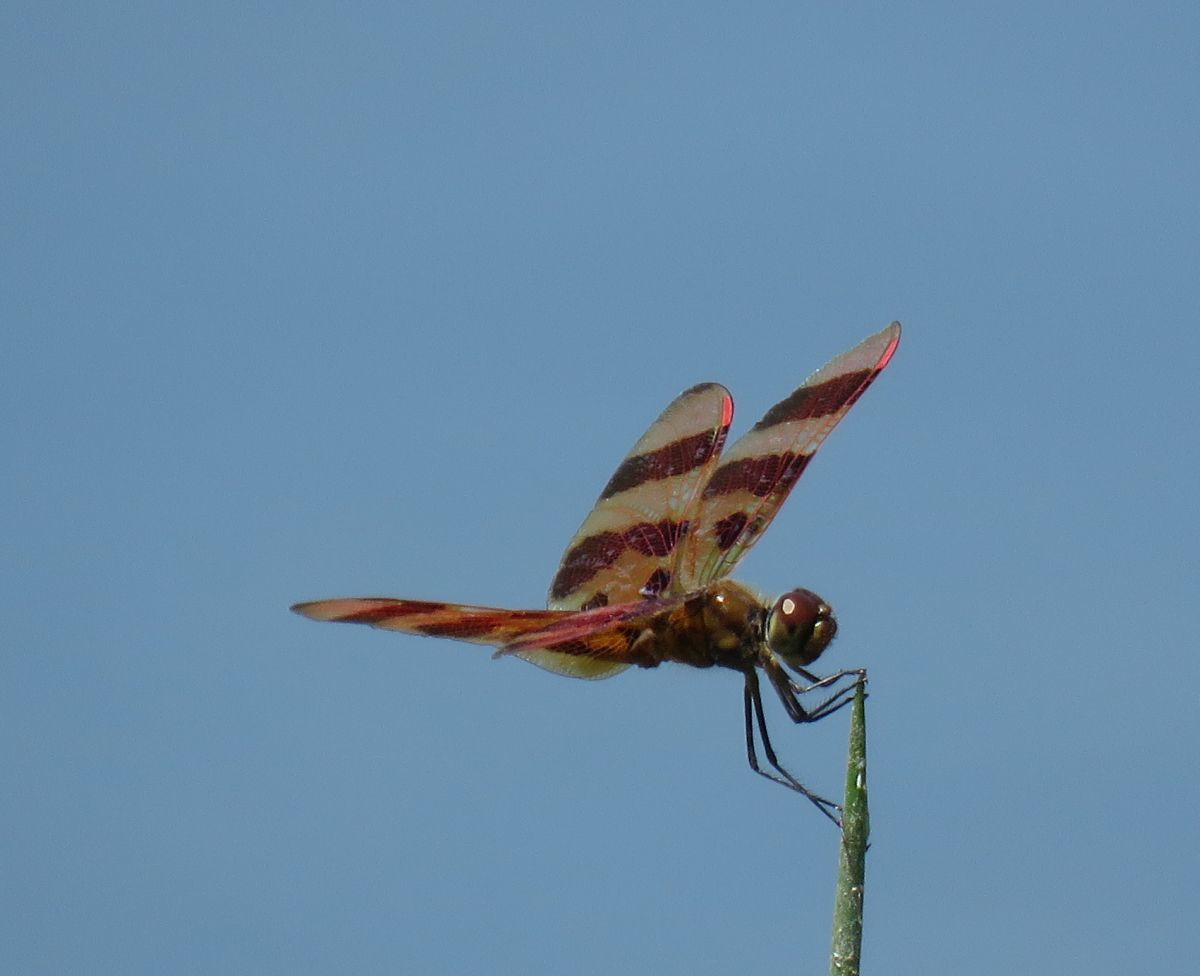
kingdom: Animalia
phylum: Arthropoda
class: Insecta
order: Odonata
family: Libellulidae
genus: Celithemis
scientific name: Celithemis eponina
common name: Halloween pennant
